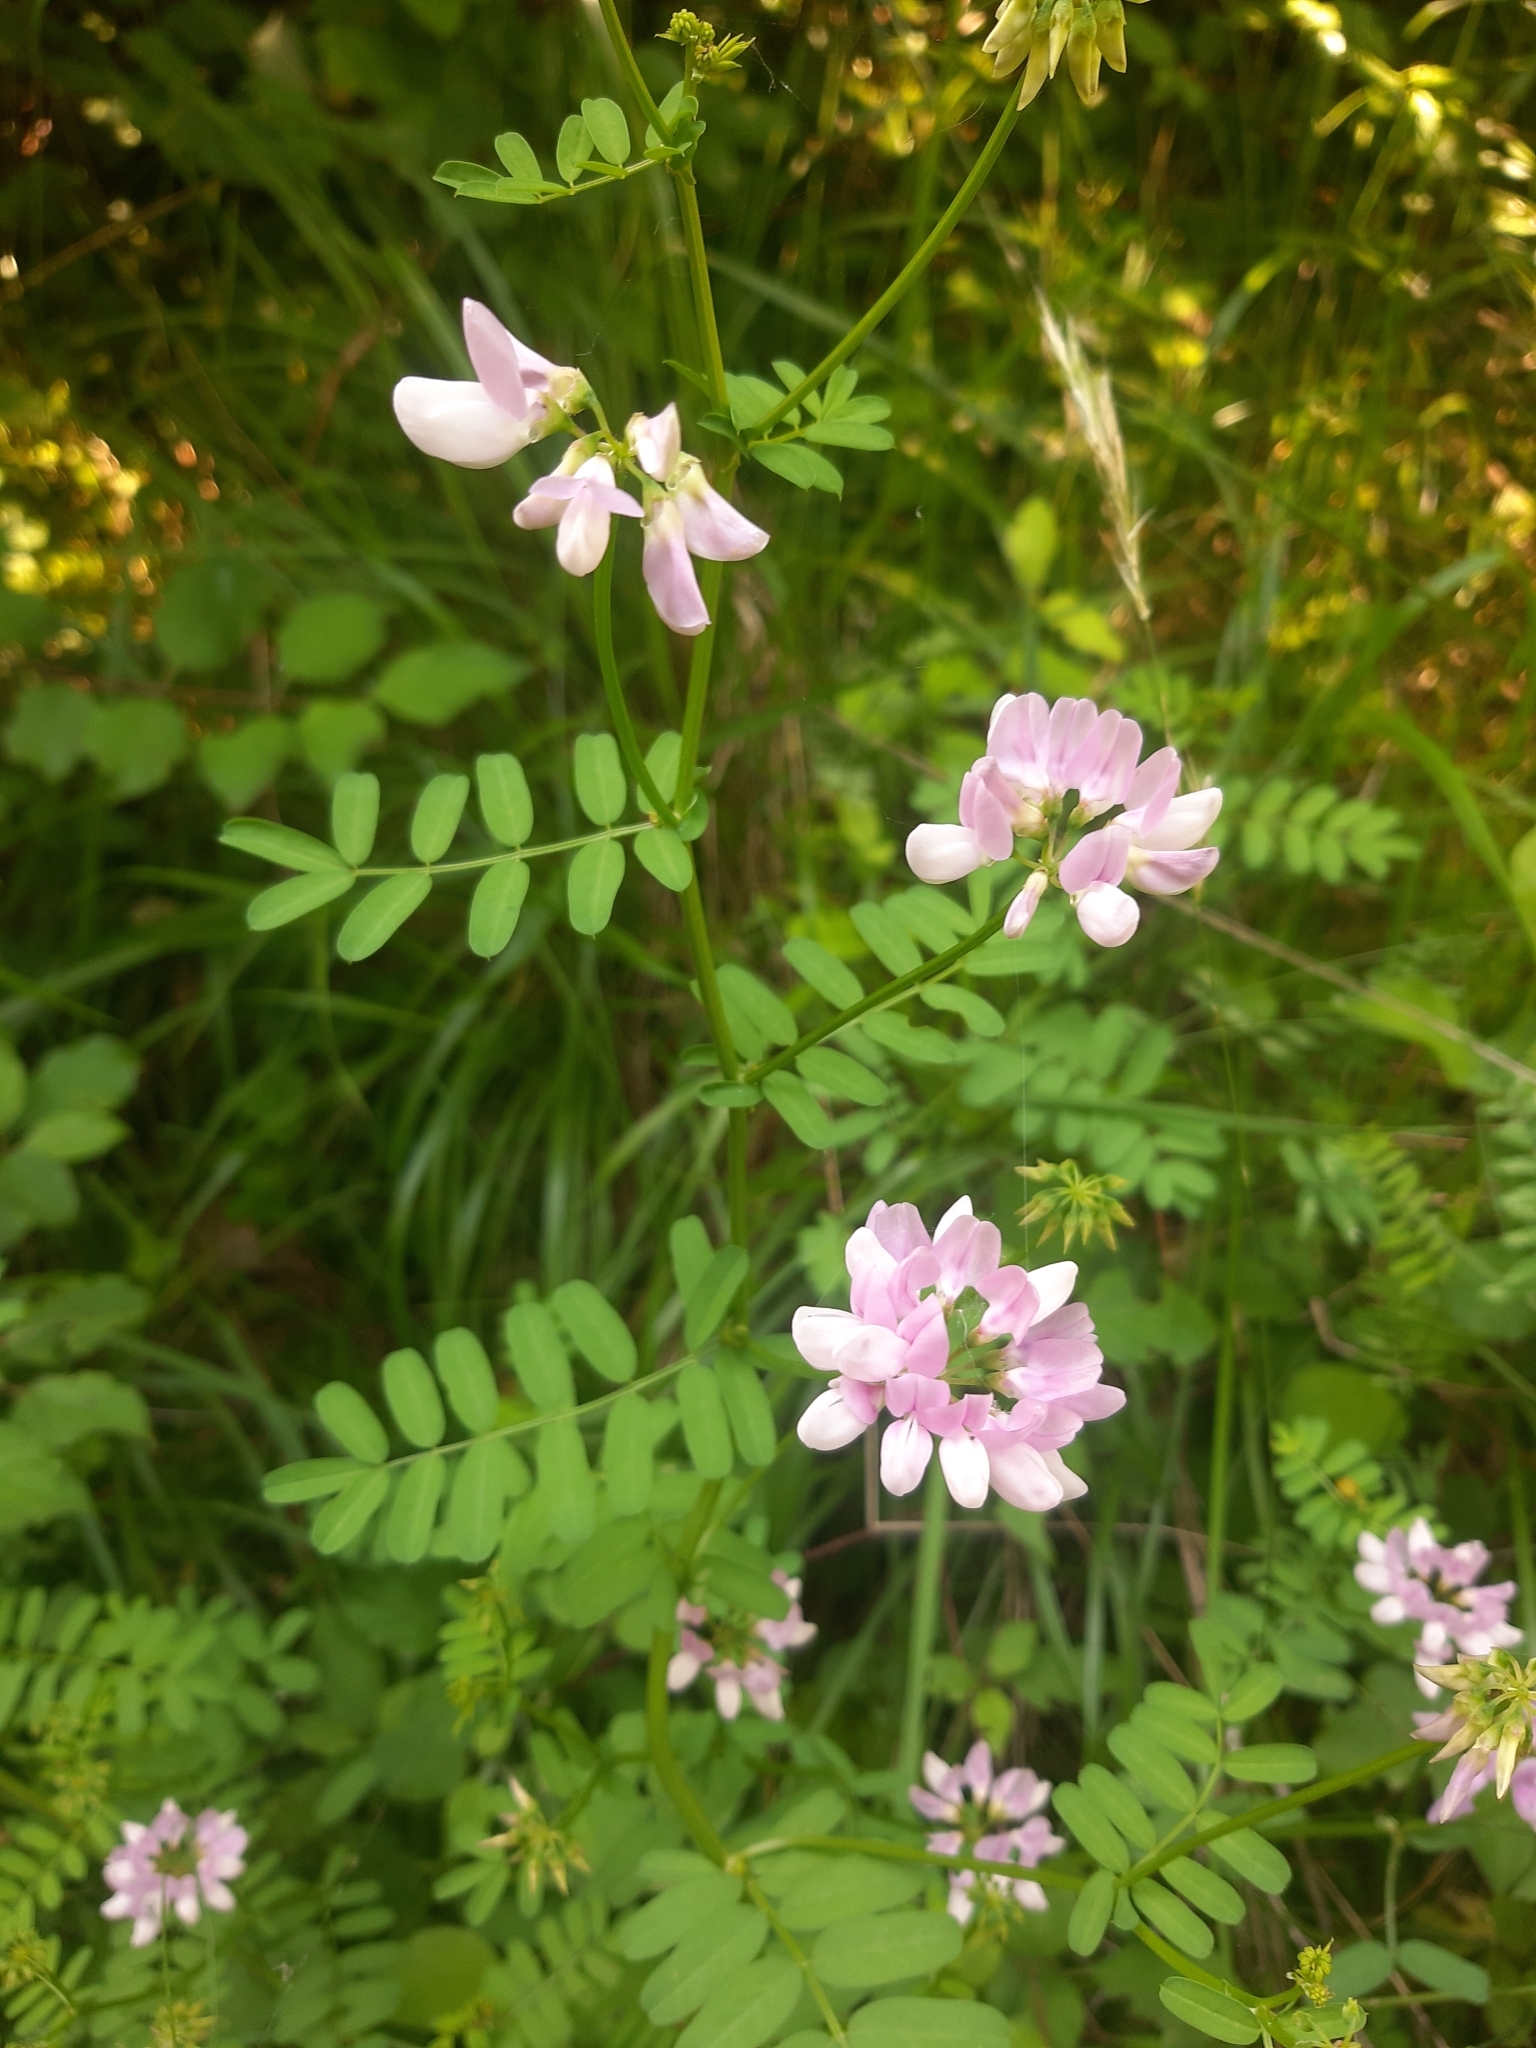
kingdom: Plantae
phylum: Tracheophyta
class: Magnoliopsida
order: Fabales
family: Fabaceae
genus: Coronilla
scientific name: Coronilla varia
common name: Crownvetch
